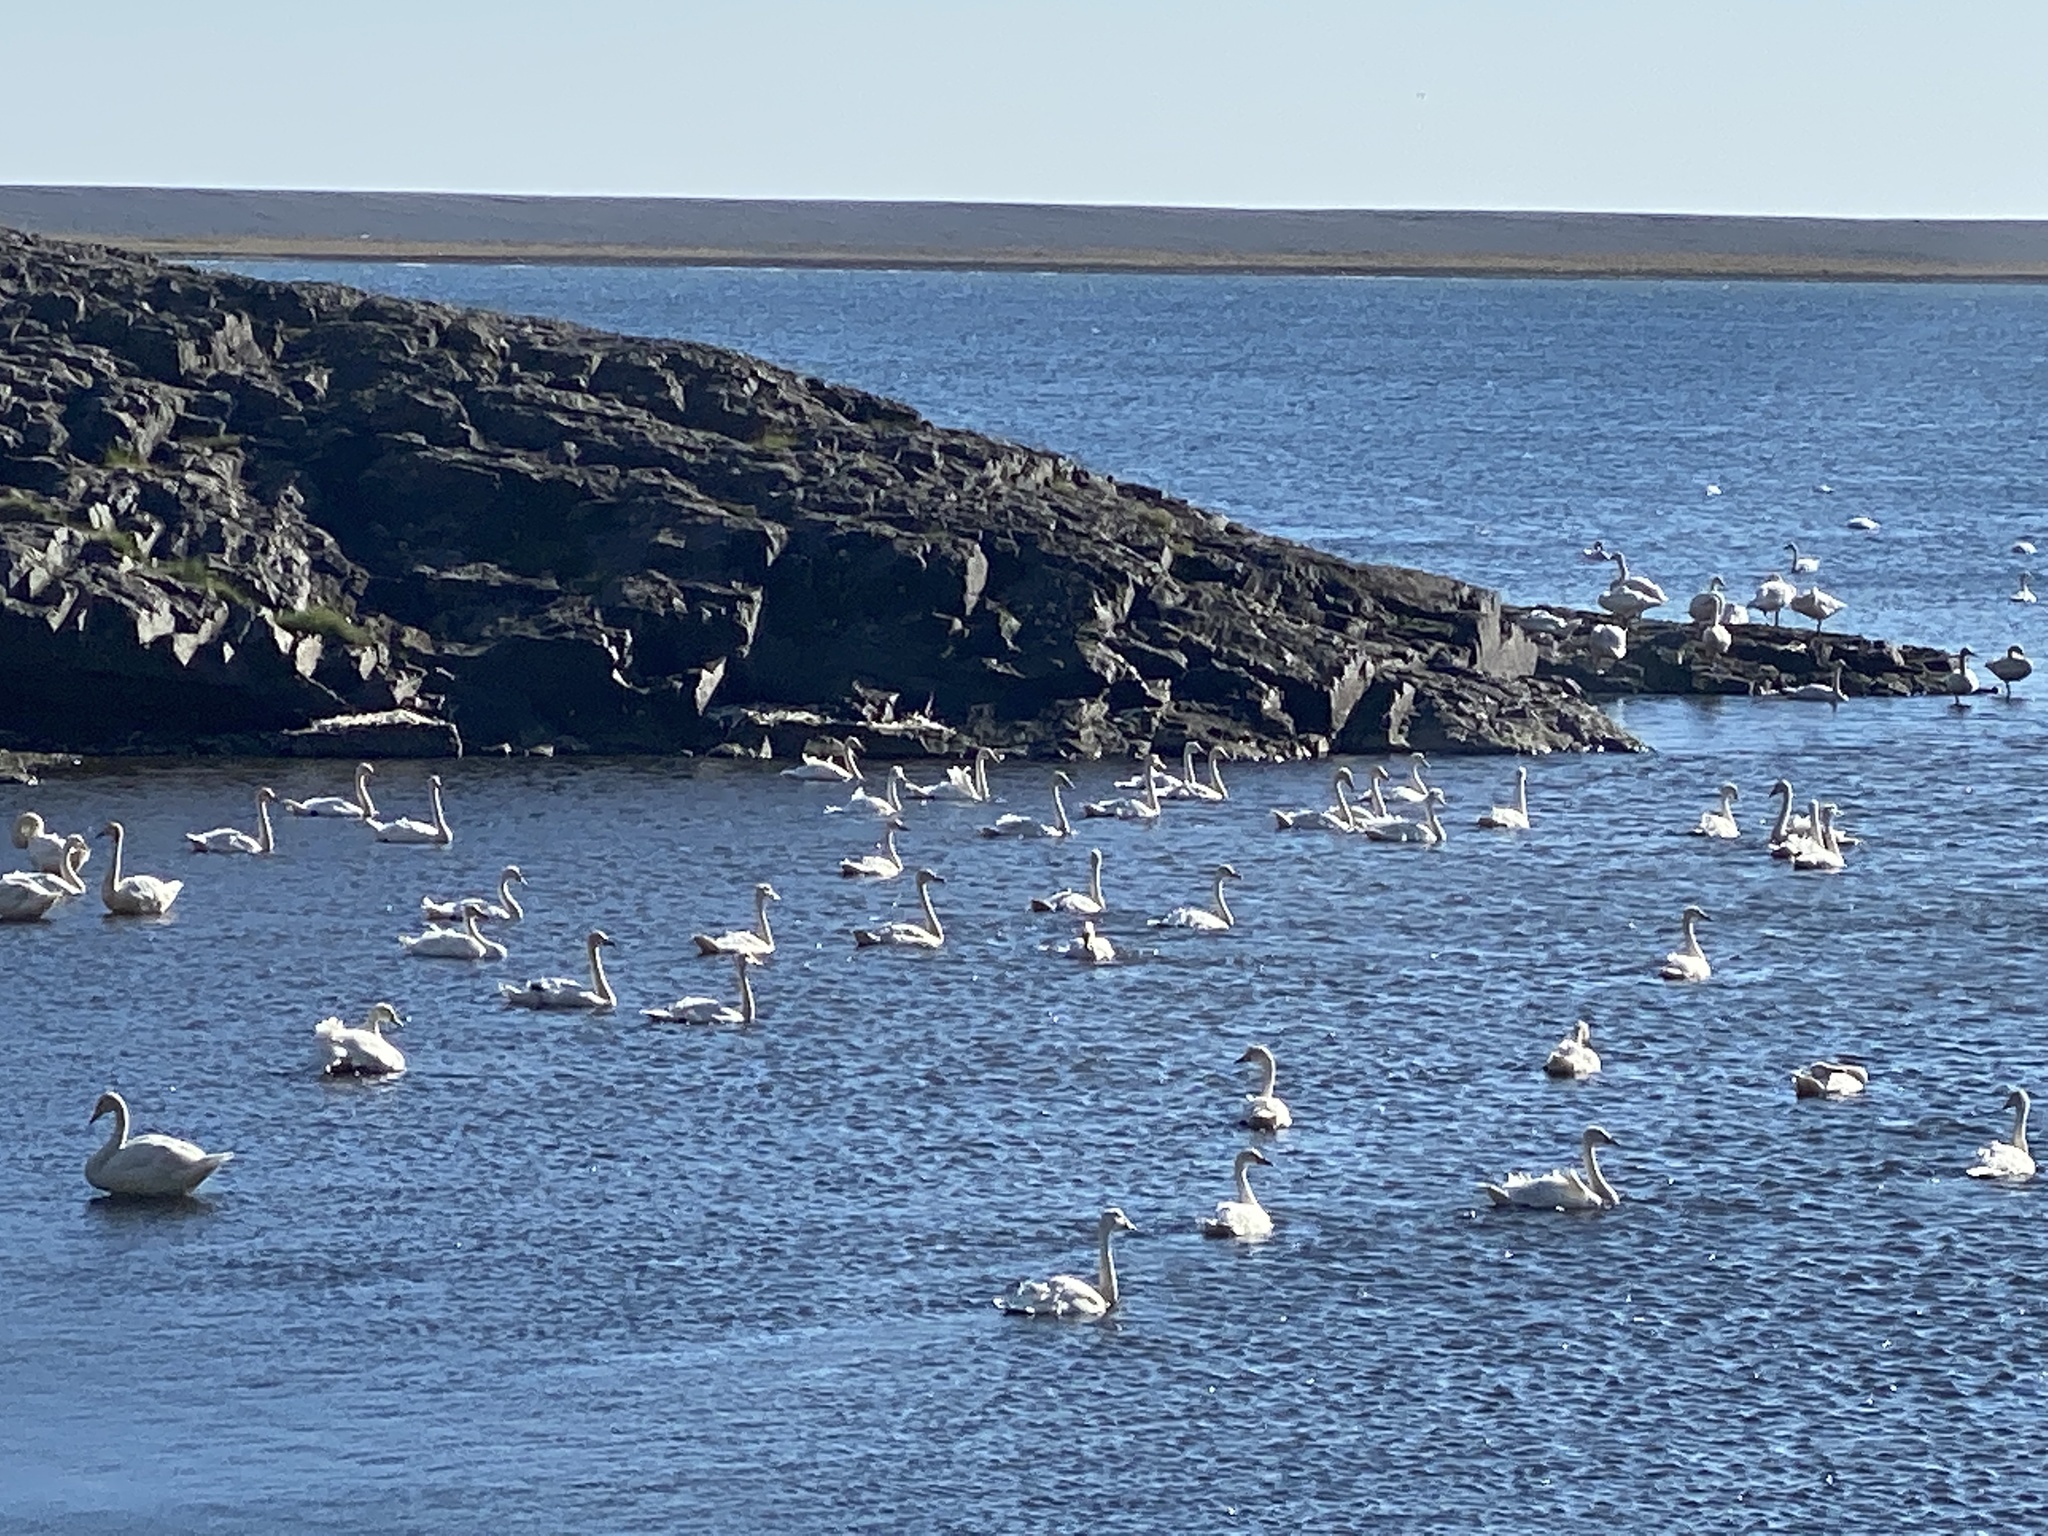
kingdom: Animalia
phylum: Chordata
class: Aves
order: Anseriformes
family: Anatidae
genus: Cygnus
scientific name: Cygnus cygnus
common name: Whooper swan
